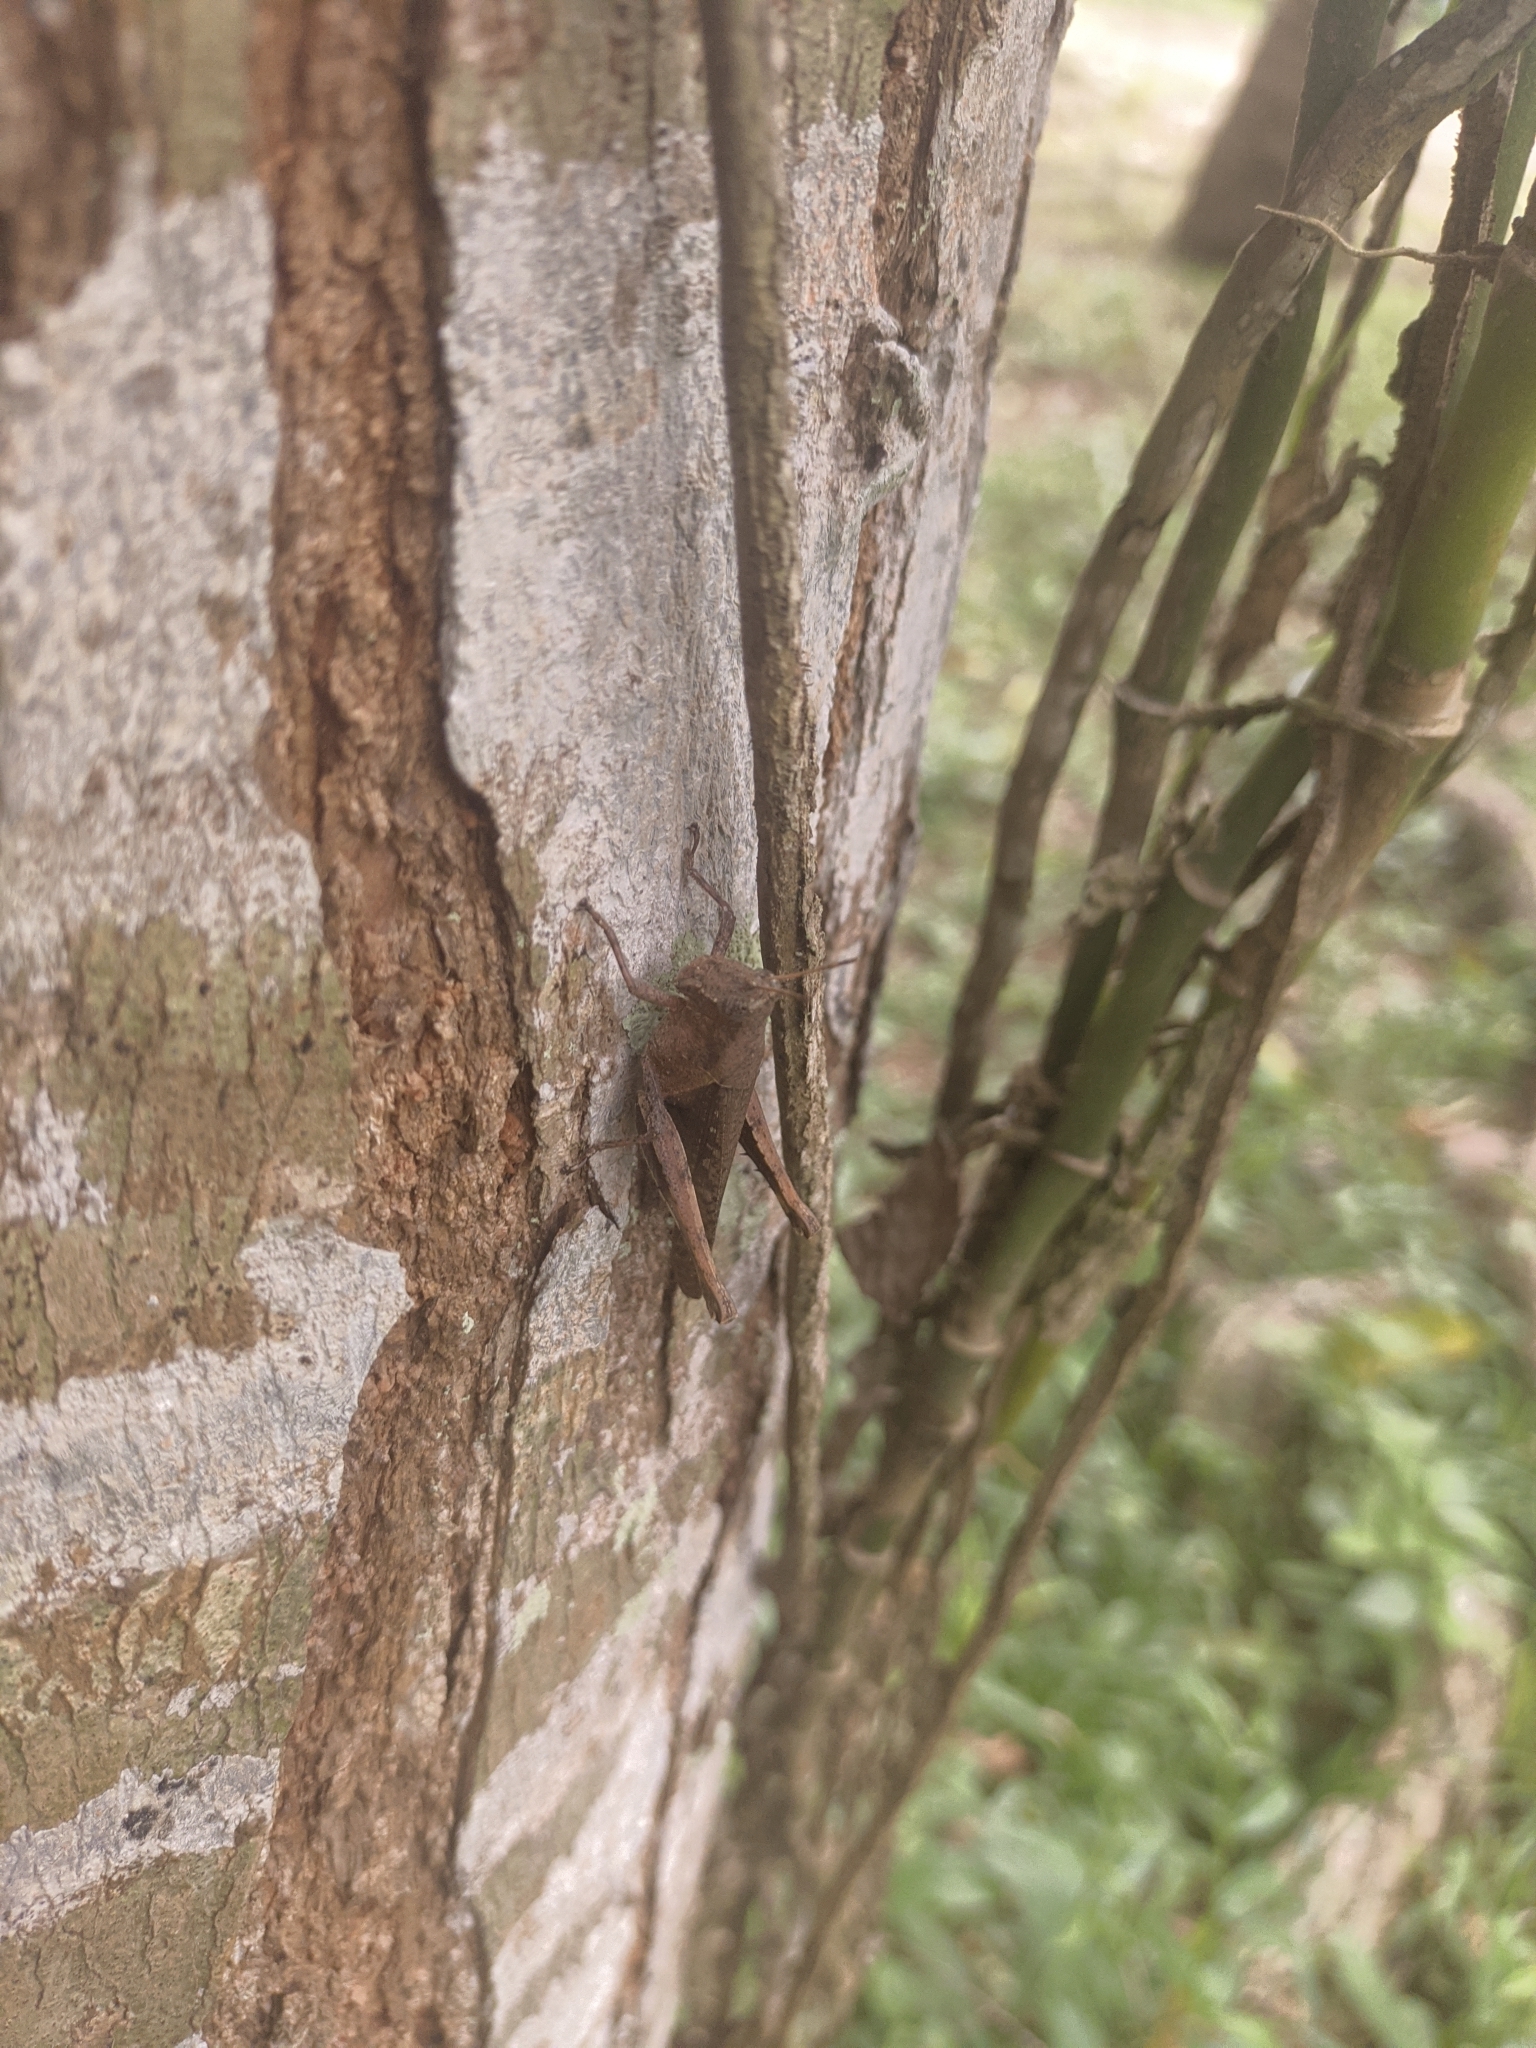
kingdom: Animalia
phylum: Arthropoda
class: Insecta
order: Orthoptera
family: Acrididae
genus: Abracris
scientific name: Abracris flavolineata
